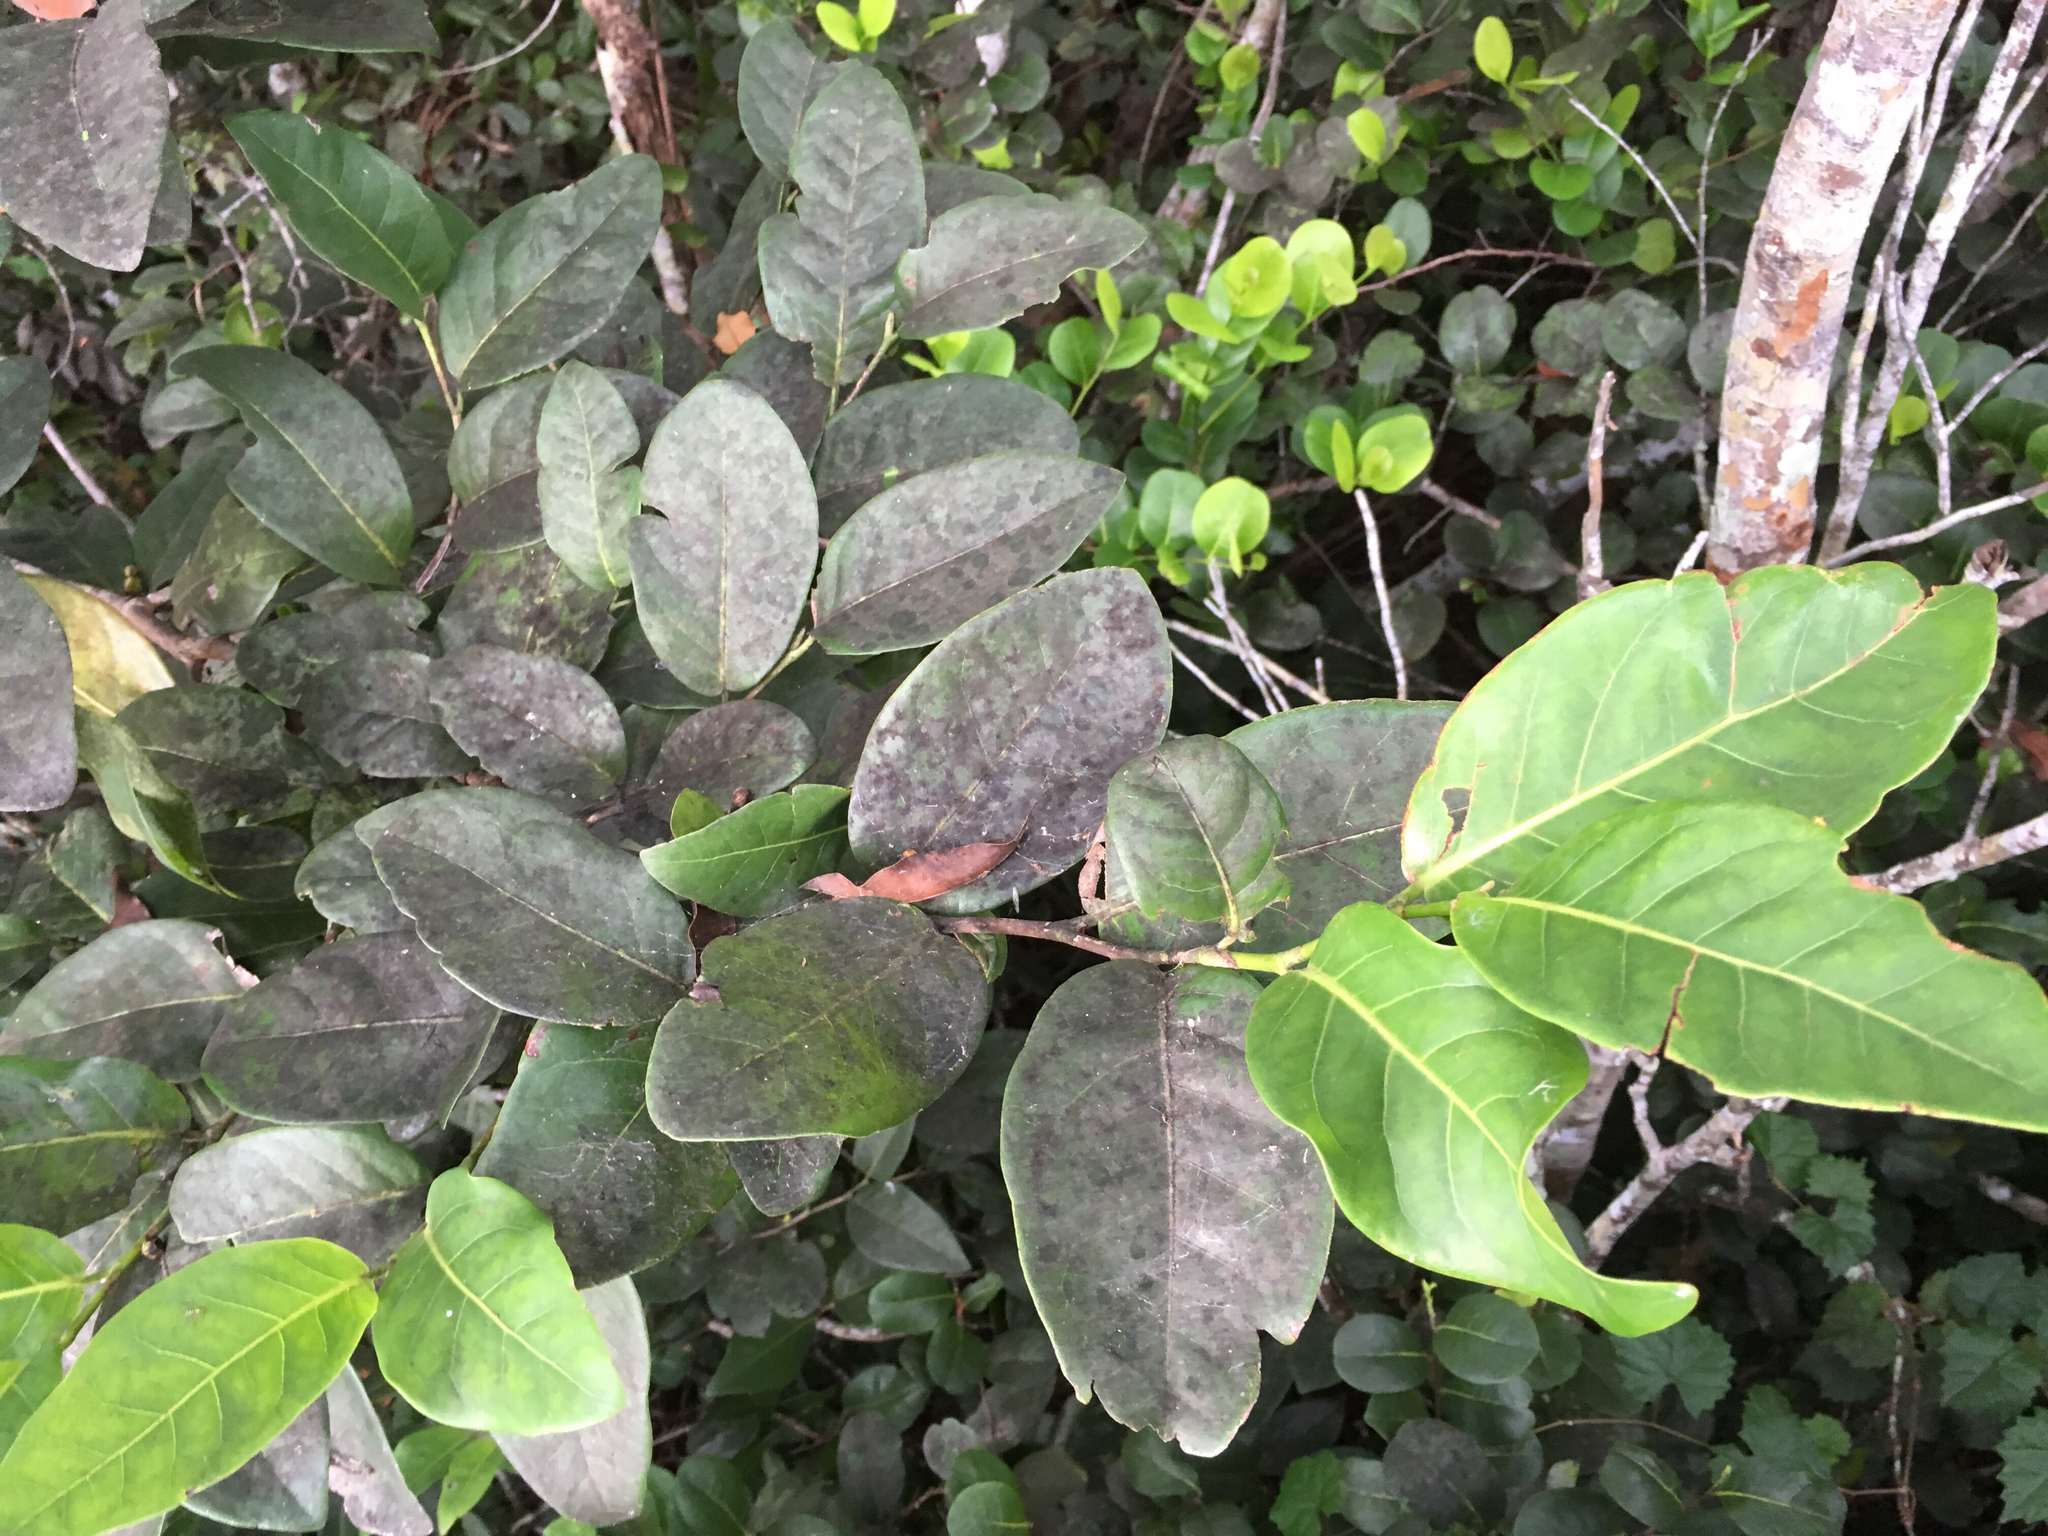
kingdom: Plantae
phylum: Tracheophyta
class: Magnoliopsida
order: Caryophyllales
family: Polygonaceae
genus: Coccoloba
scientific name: Coccoloba diversifolia
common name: Pigeon-plum
